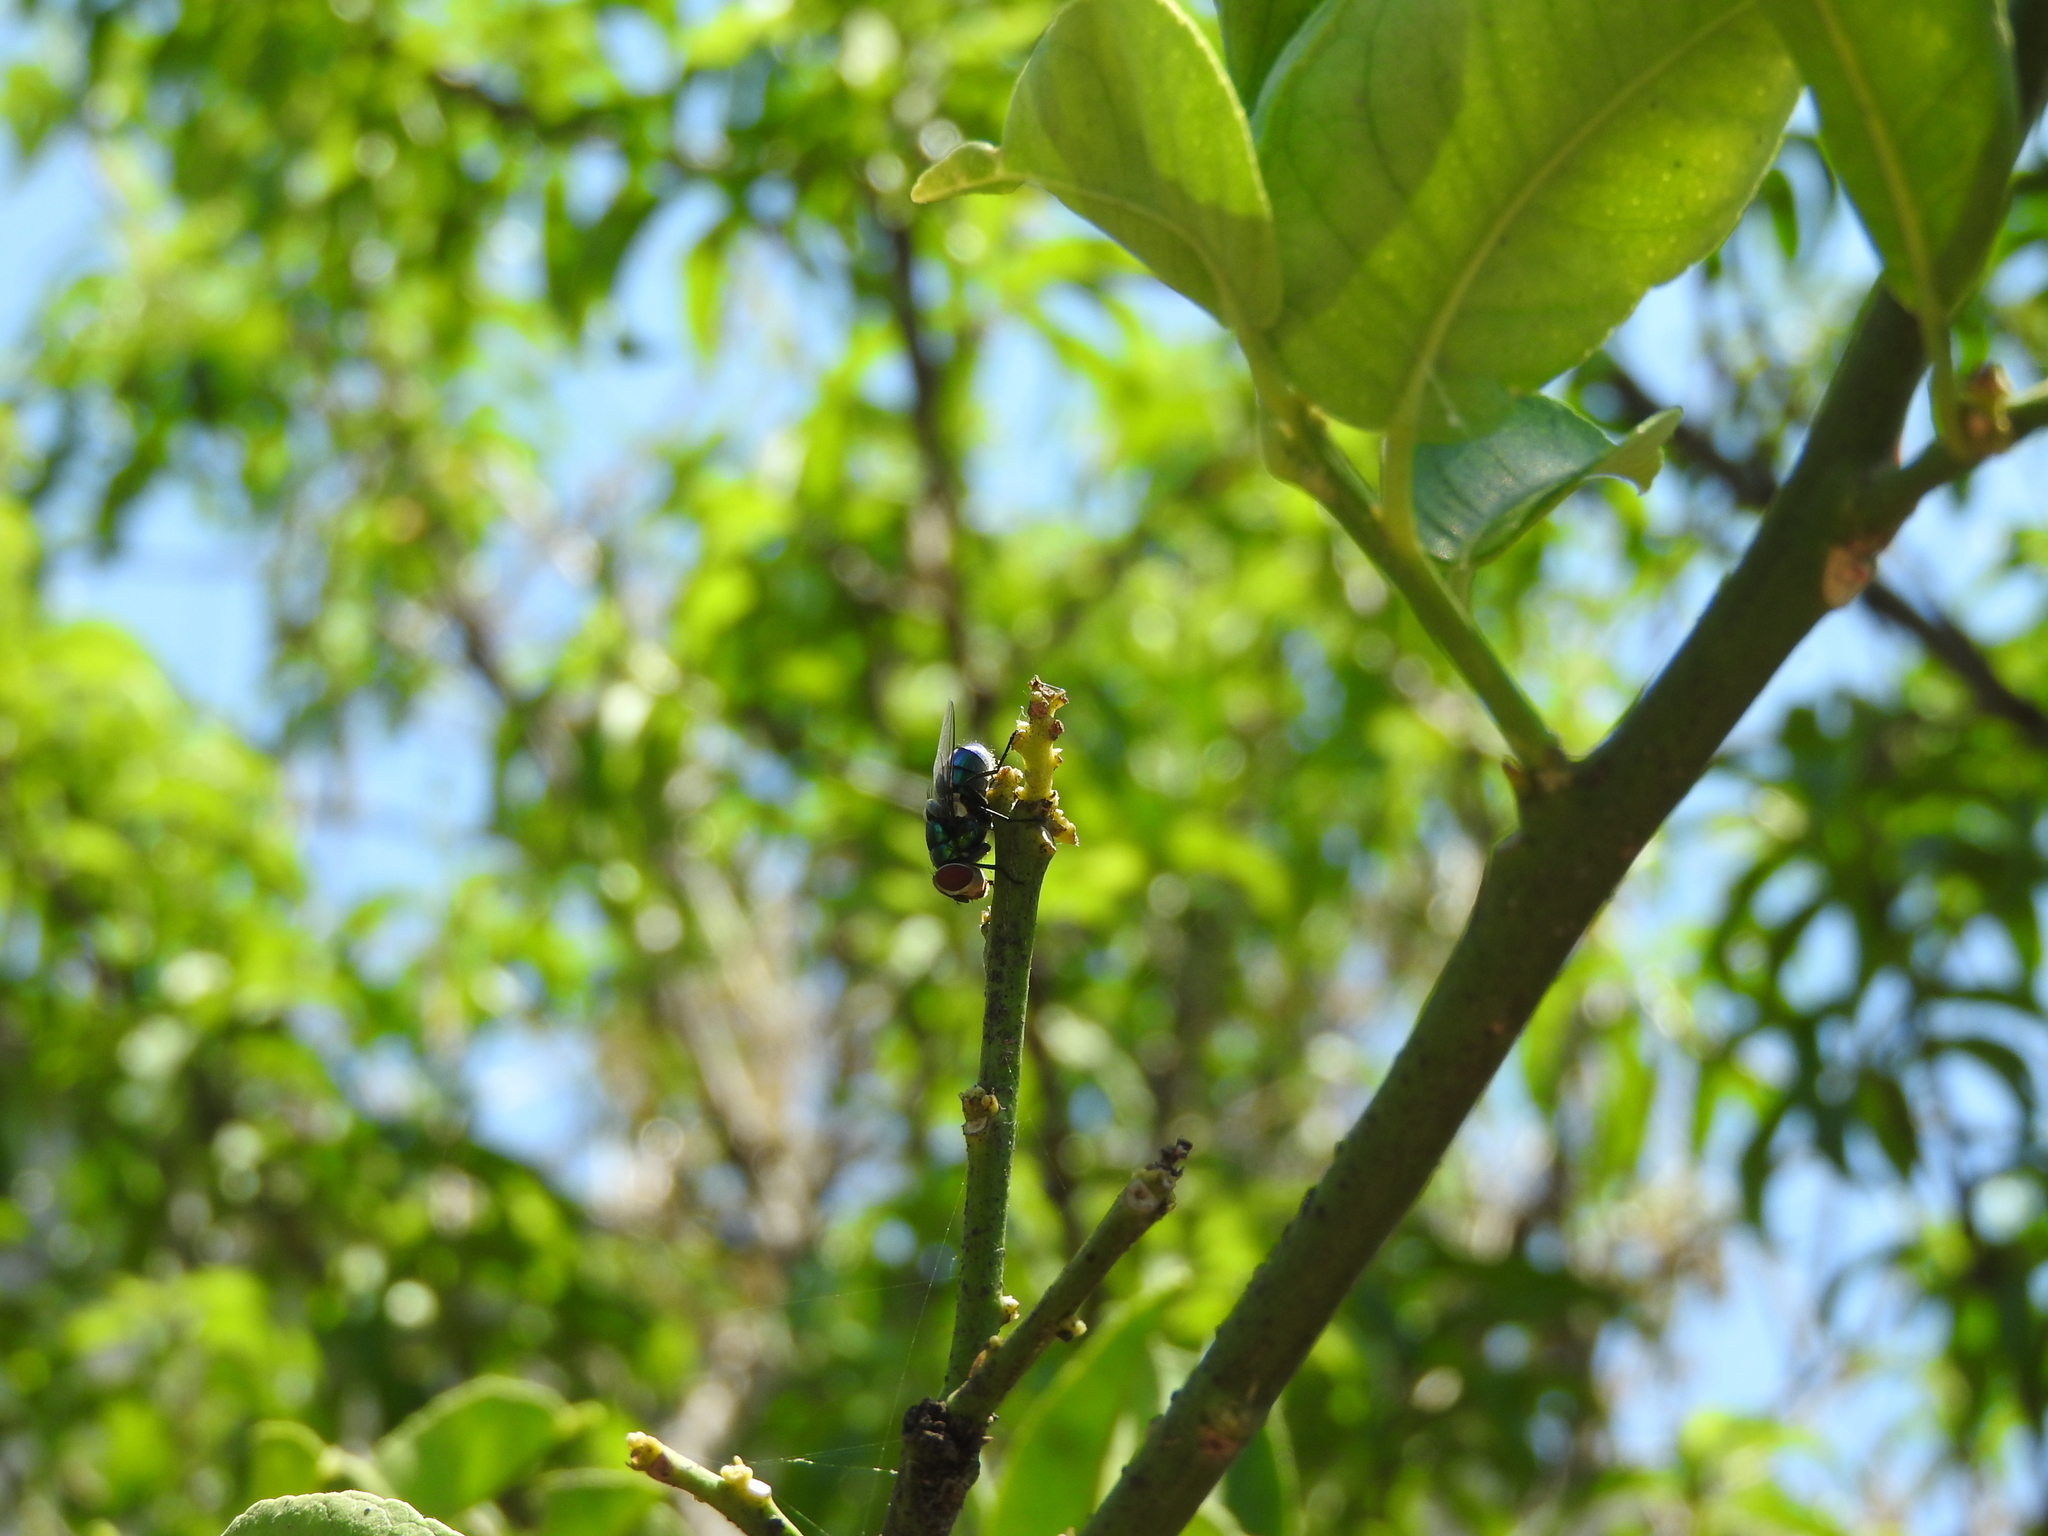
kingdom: Animalia
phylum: Arthropoda
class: Insecta
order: Diptera
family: Calliphoridae
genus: Chrysomya
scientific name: Chrysomya rufifacies
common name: Blow fly
